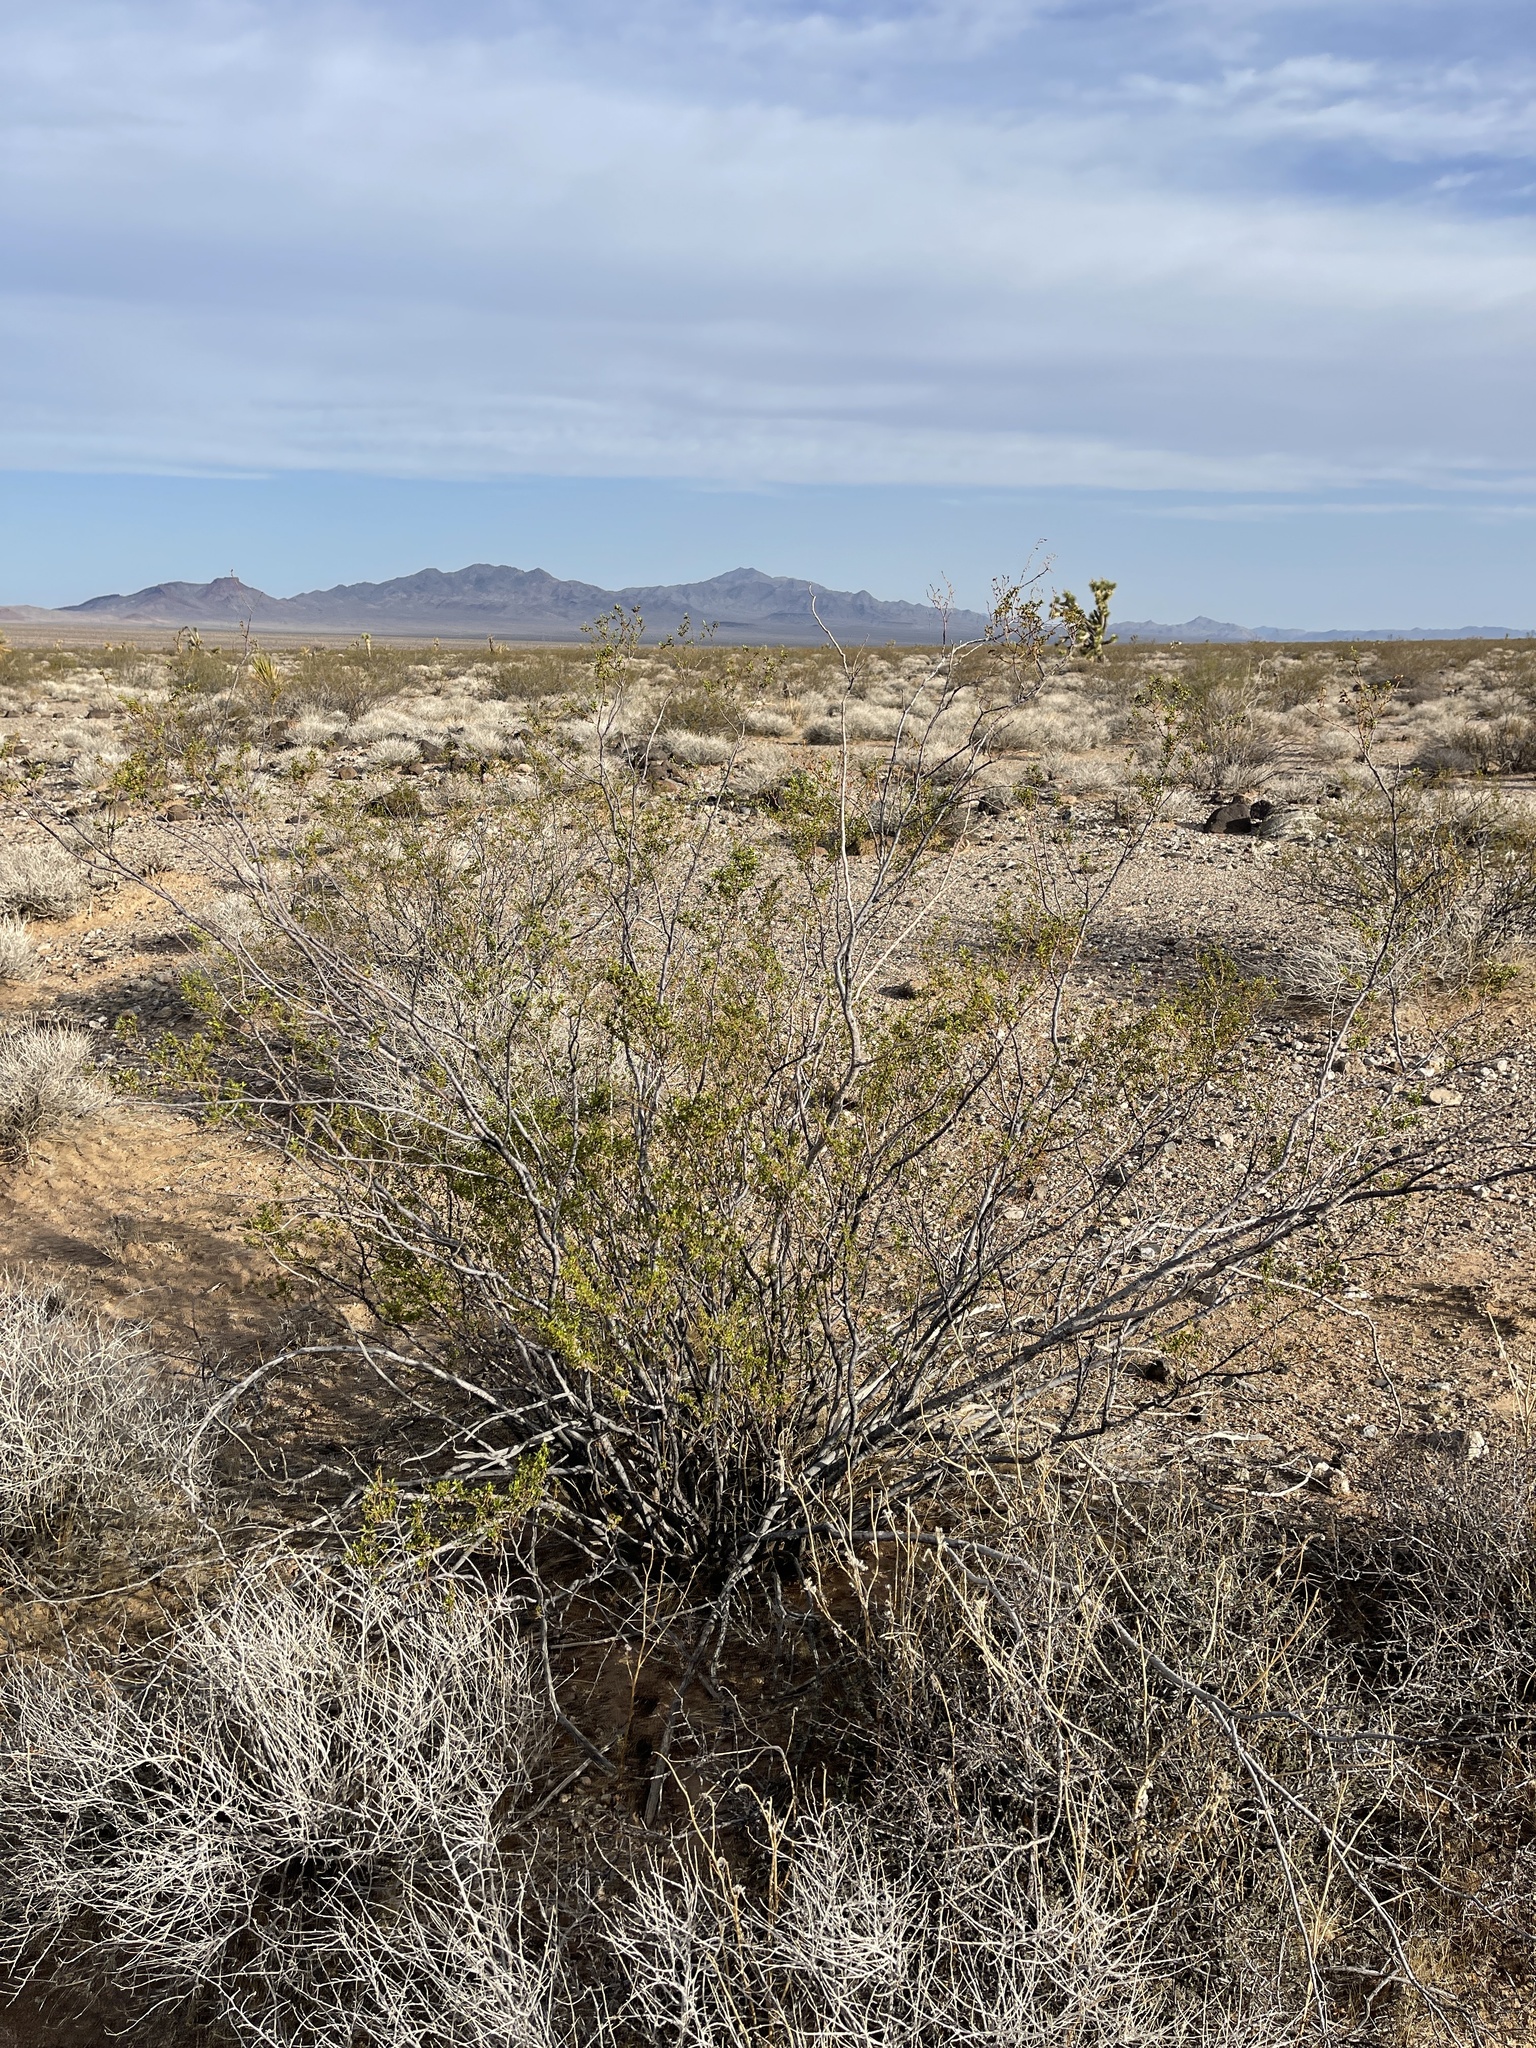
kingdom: Plantae
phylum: Tracheophyta
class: Magnoliopsida
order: Zygophyllales
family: Zygophyllaceae
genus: Larrea
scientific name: Larrea tridentata
